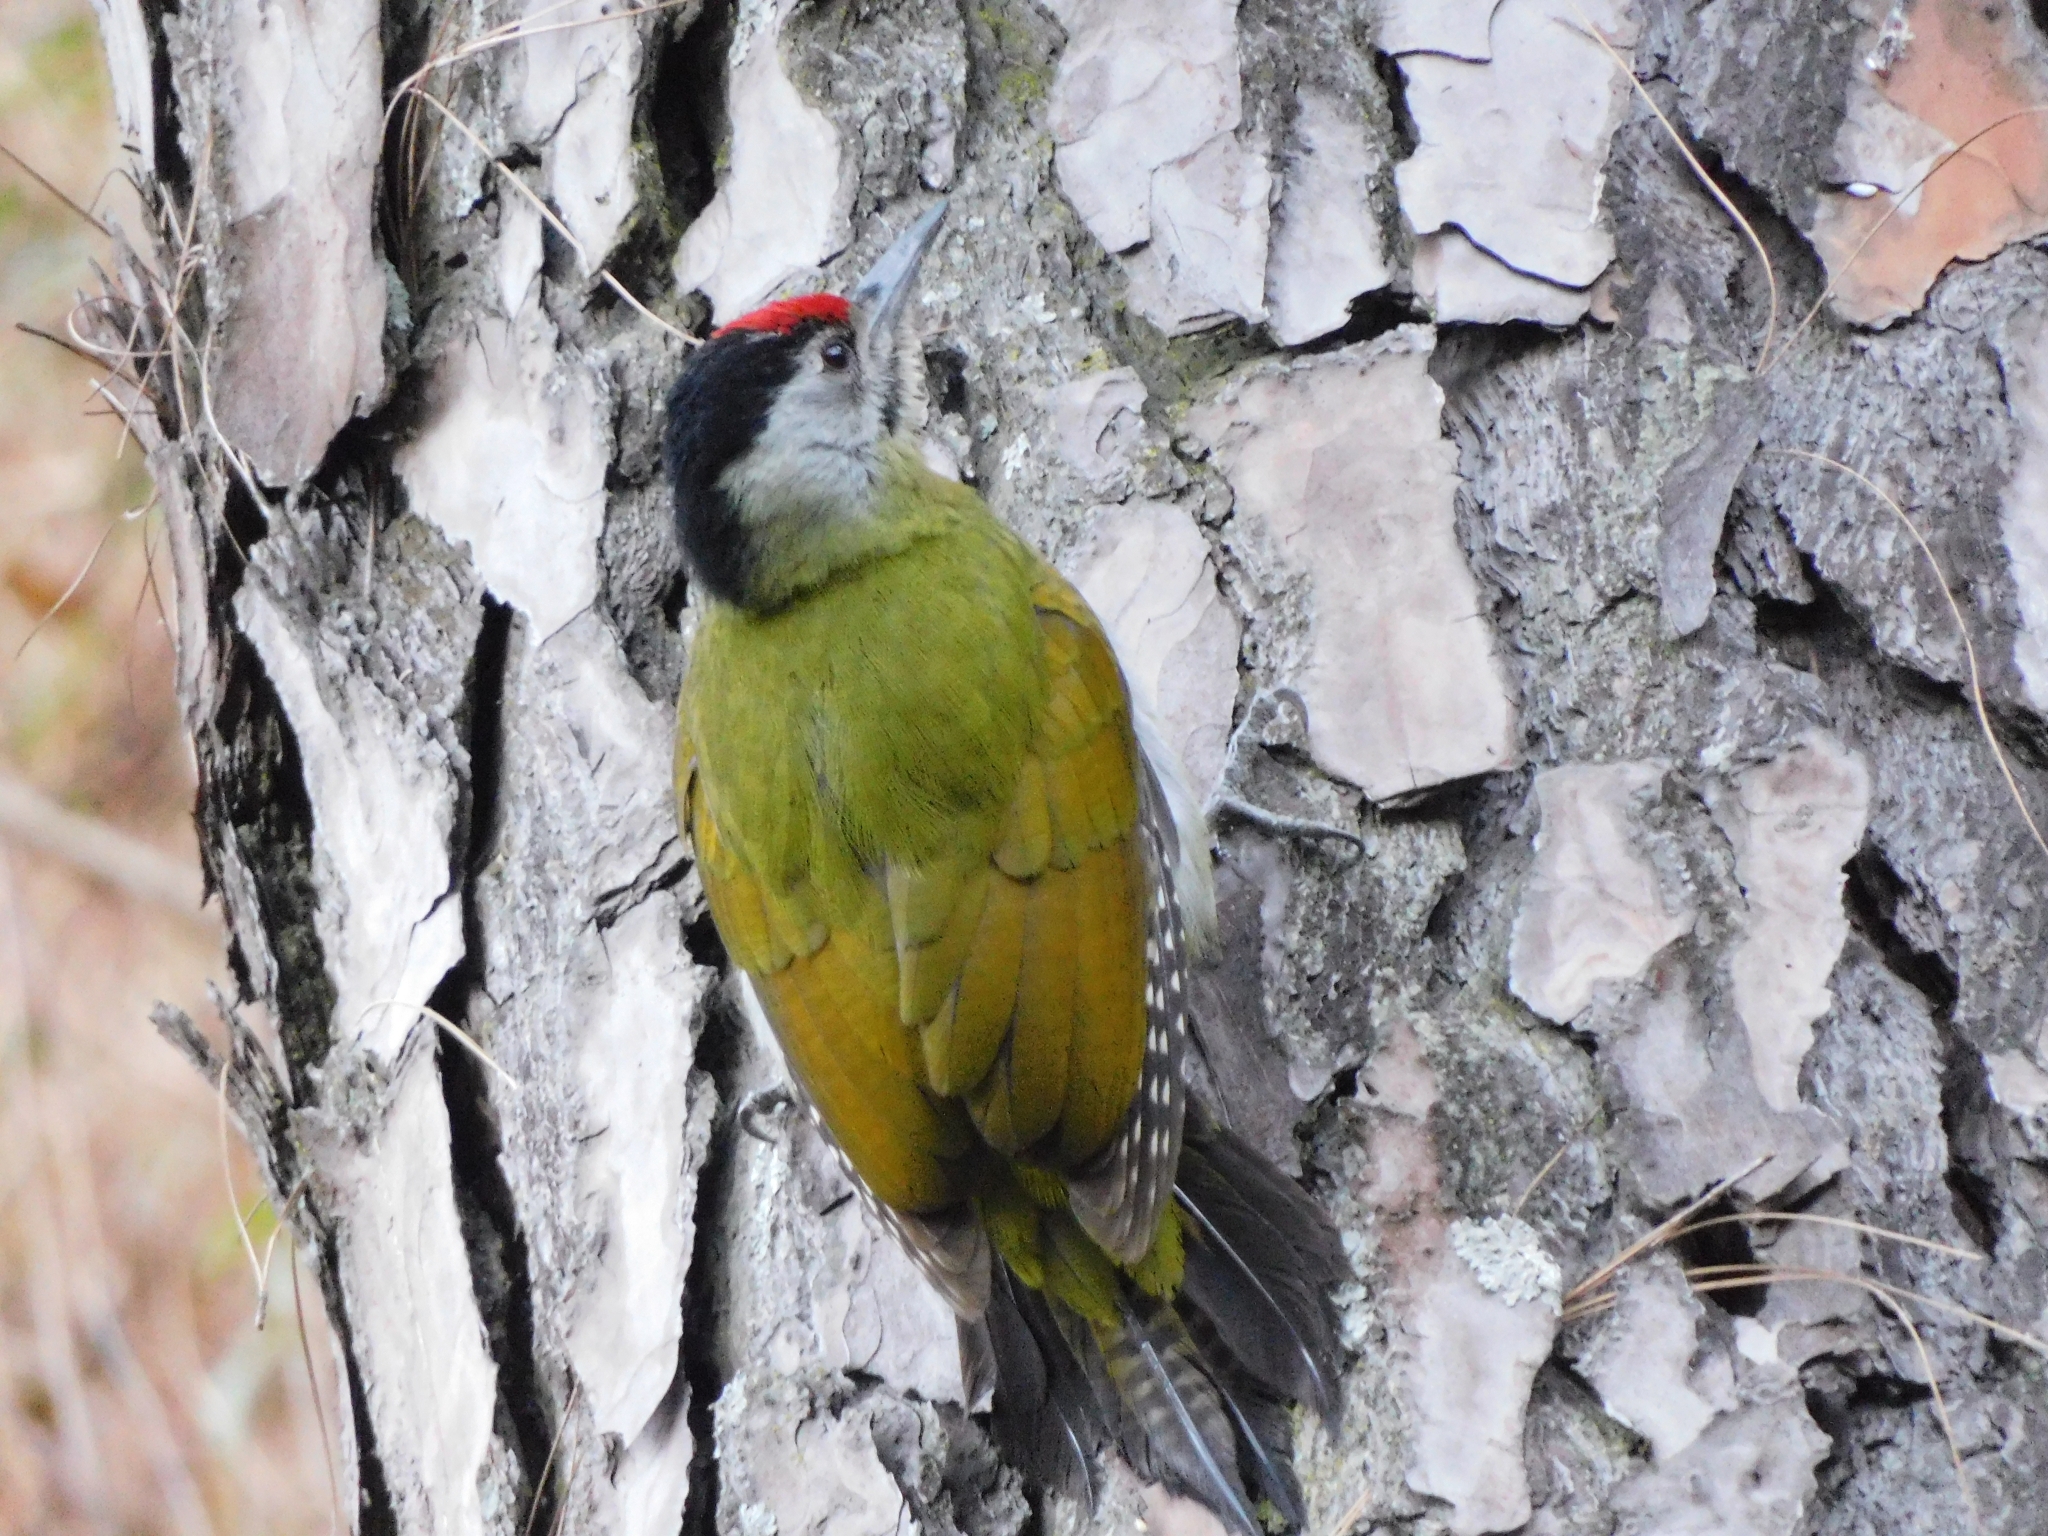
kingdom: Animalia
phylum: Chordata
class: Aves
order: Piciformes
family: Picidae
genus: Picus
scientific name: Picus canus
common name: Grey-headed woodpecker
